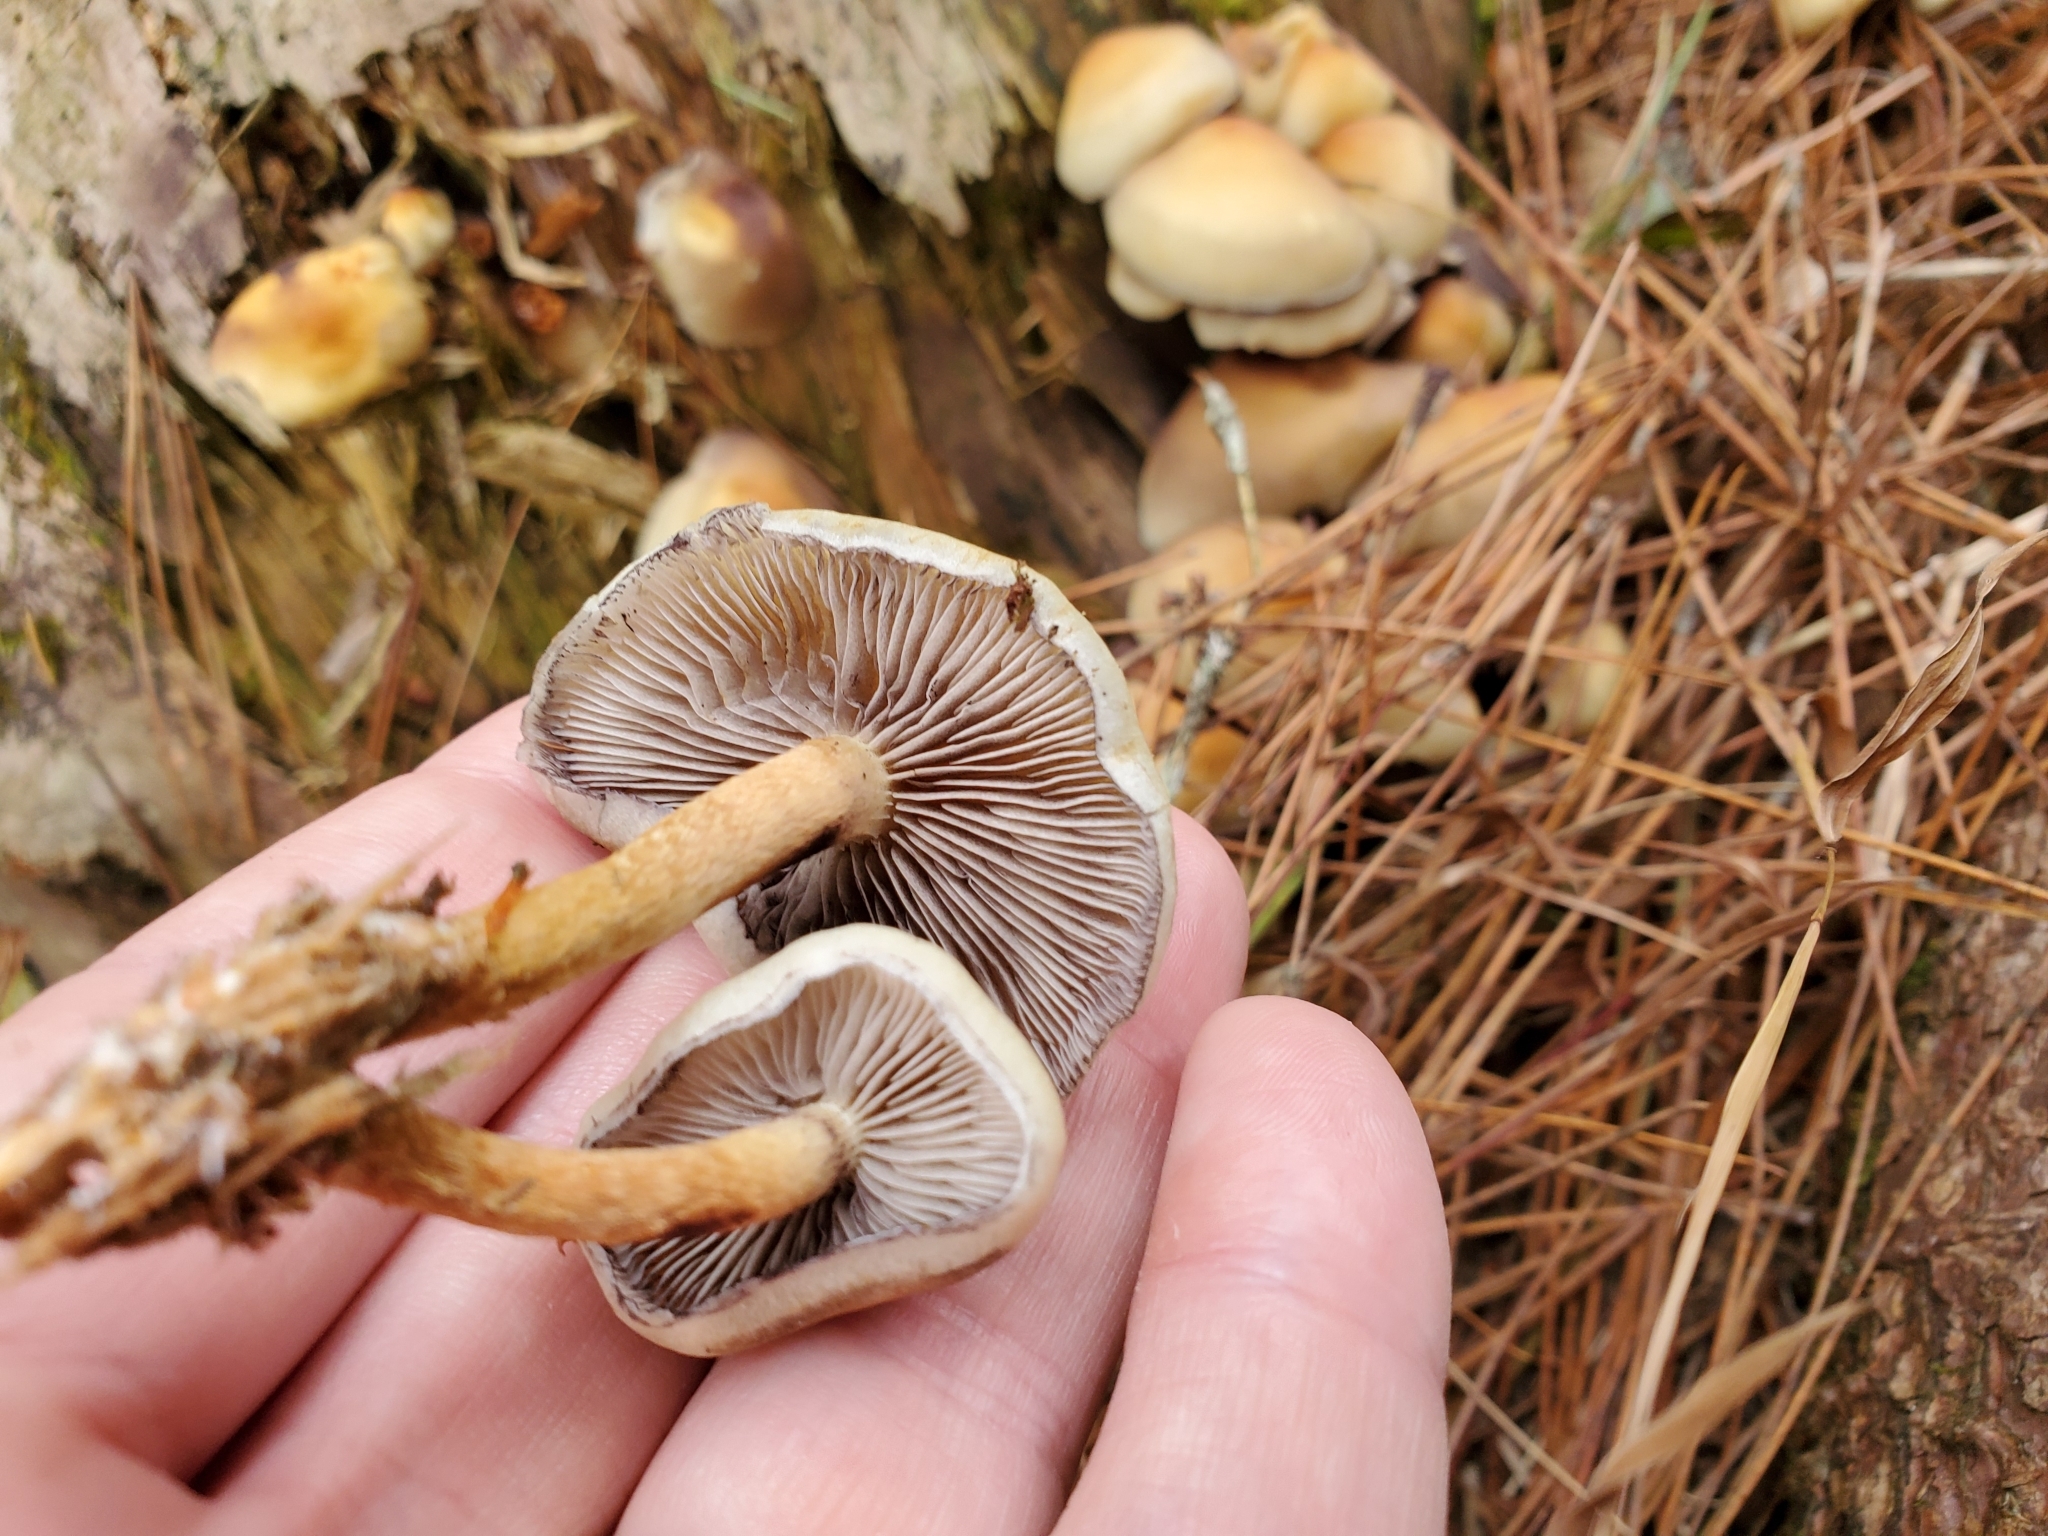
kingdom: Fungi
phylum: Basidiomycota
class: Agaricomycetes
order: Agaricales
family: Strophariaceae
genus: Hypholoma
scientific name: Hypholoma capnoides
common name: Conifer tuft
